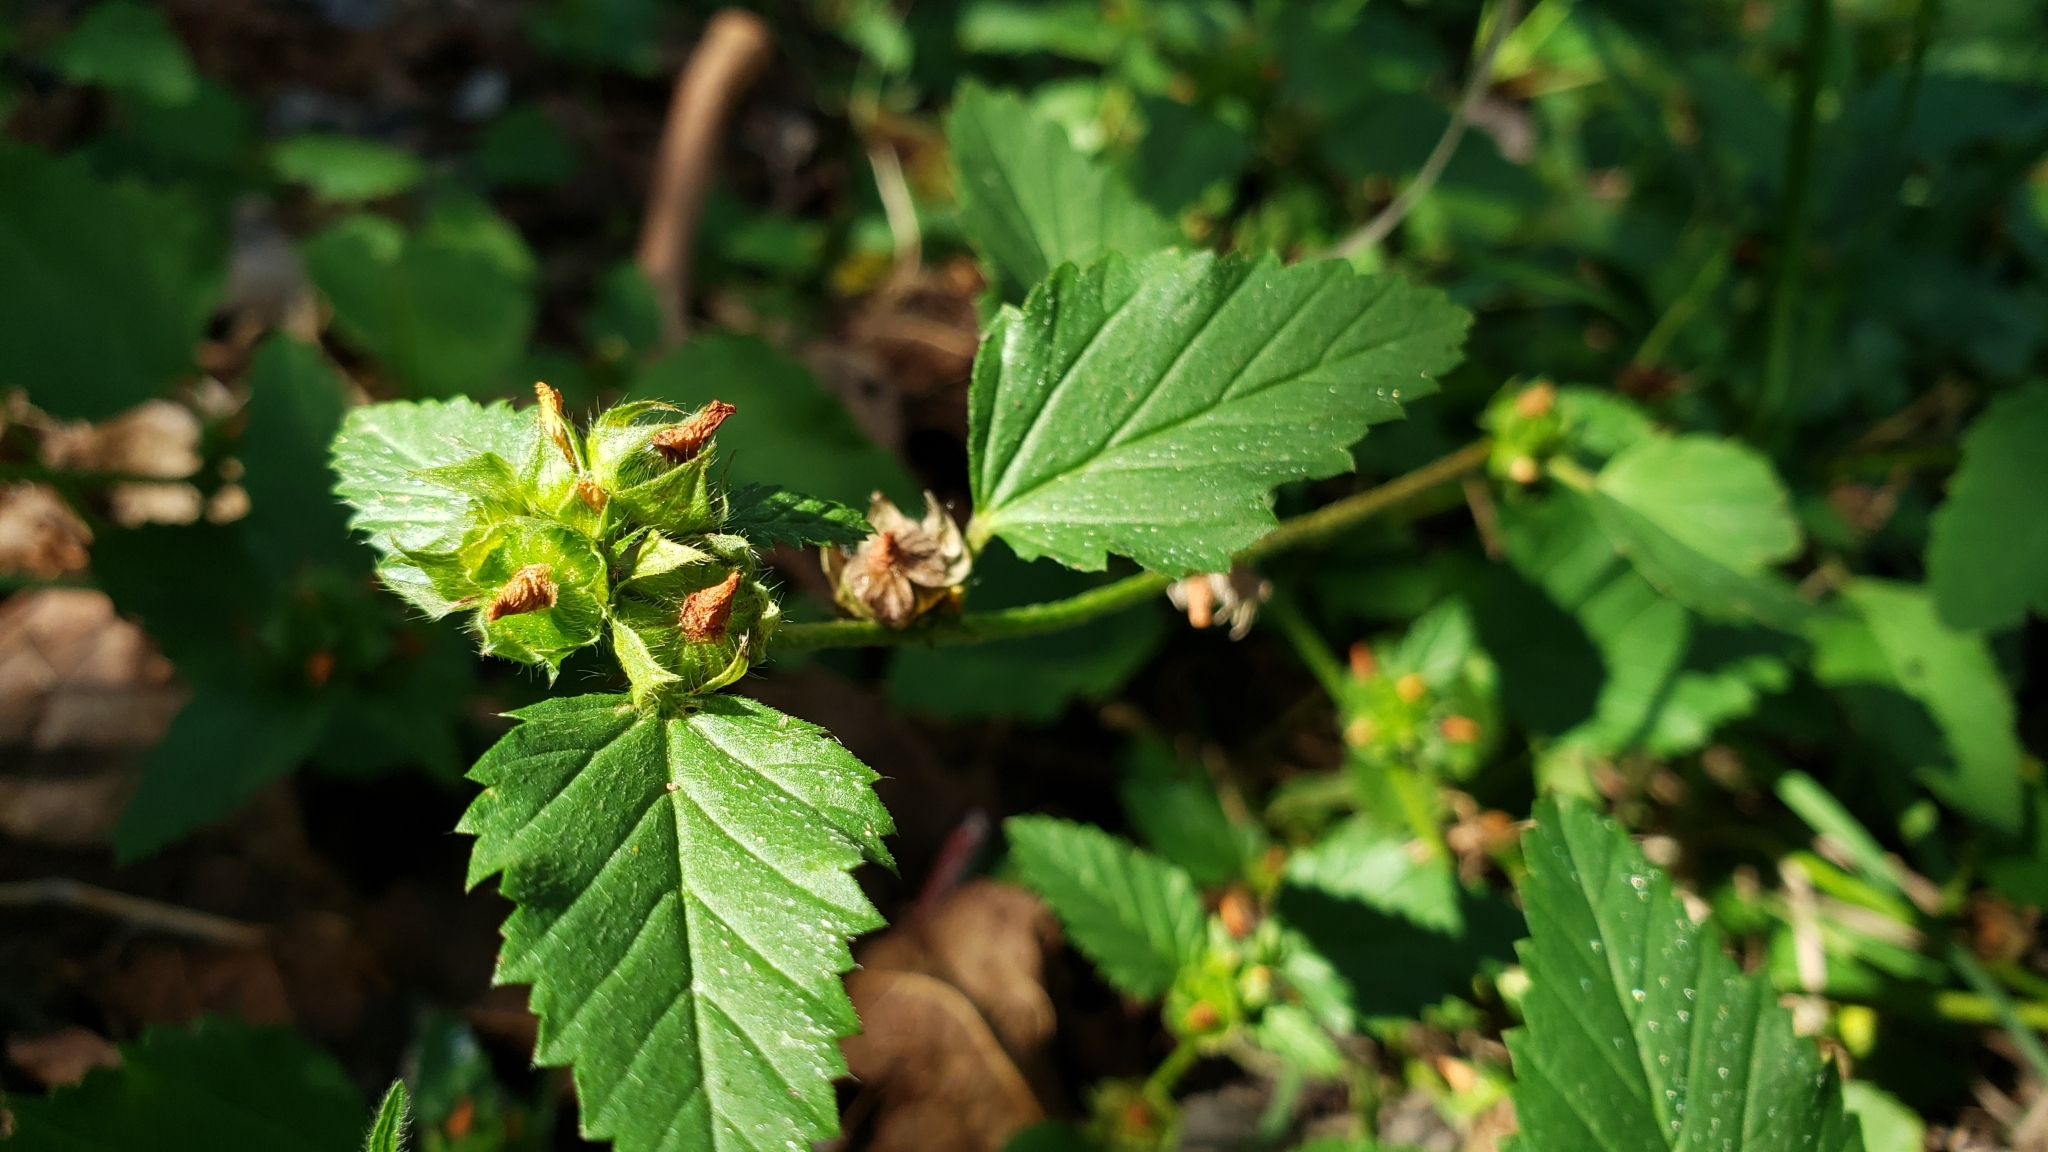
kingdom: Plantae
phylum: Tracheophyta
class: Magnoliopsida
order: Malvales
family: Malvaceae
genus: Malvastrum
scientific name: Malvastrum coromandelianum
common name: Threelobe false mallow
